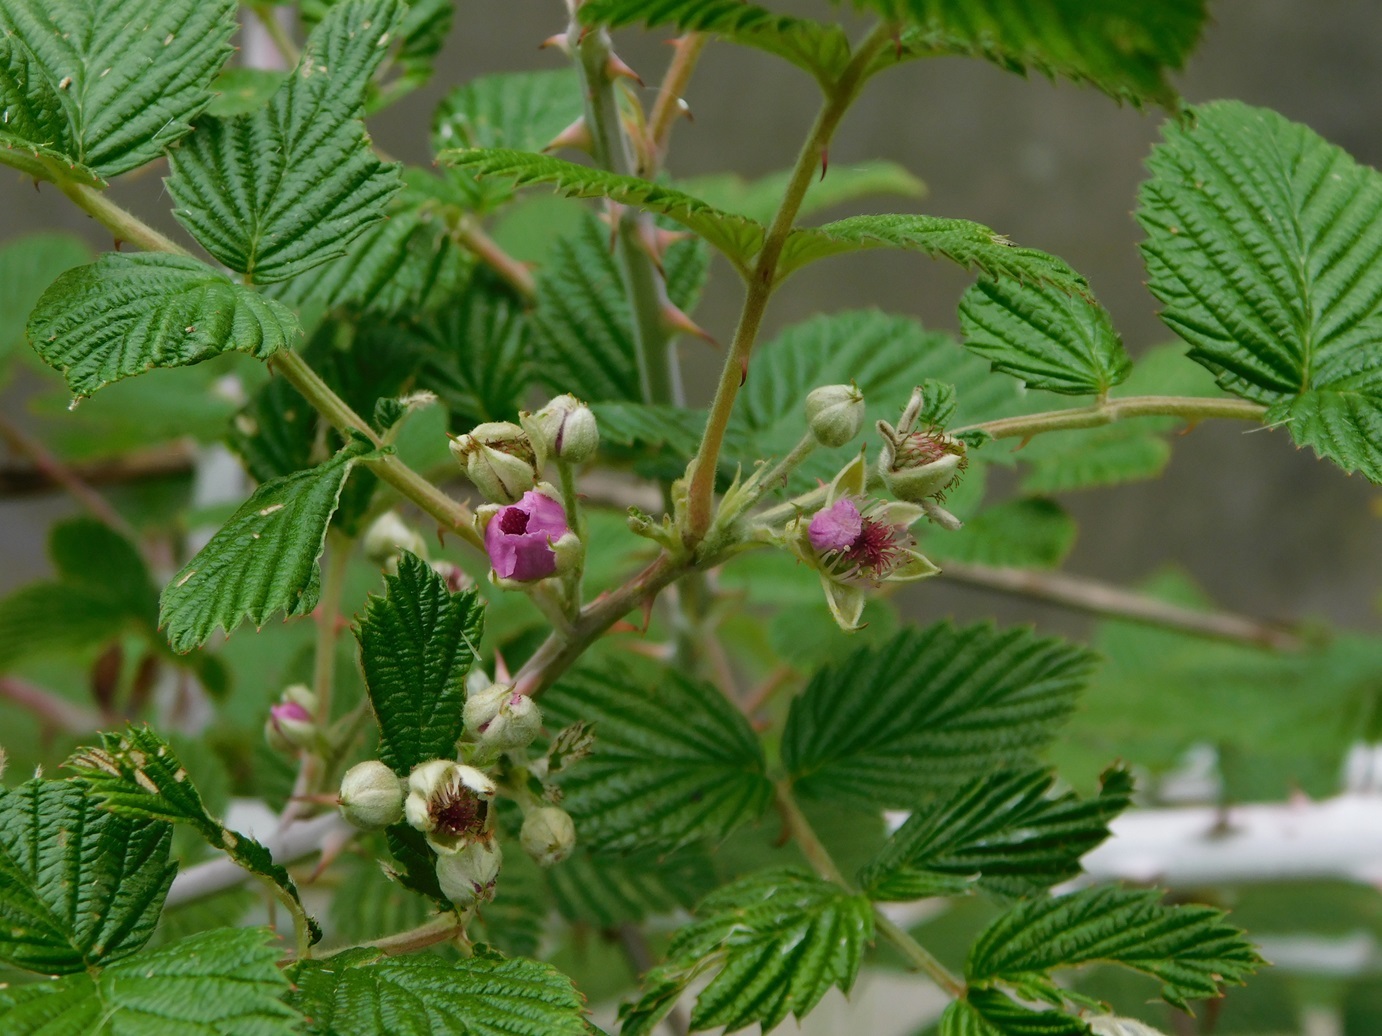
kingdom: Plantae
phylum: Tracheophyta
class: Magnoliopsida
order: Rosales
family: Rosaceae
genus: Rubus
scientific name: Rubus niveus
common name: Snowpeaks raspberry
